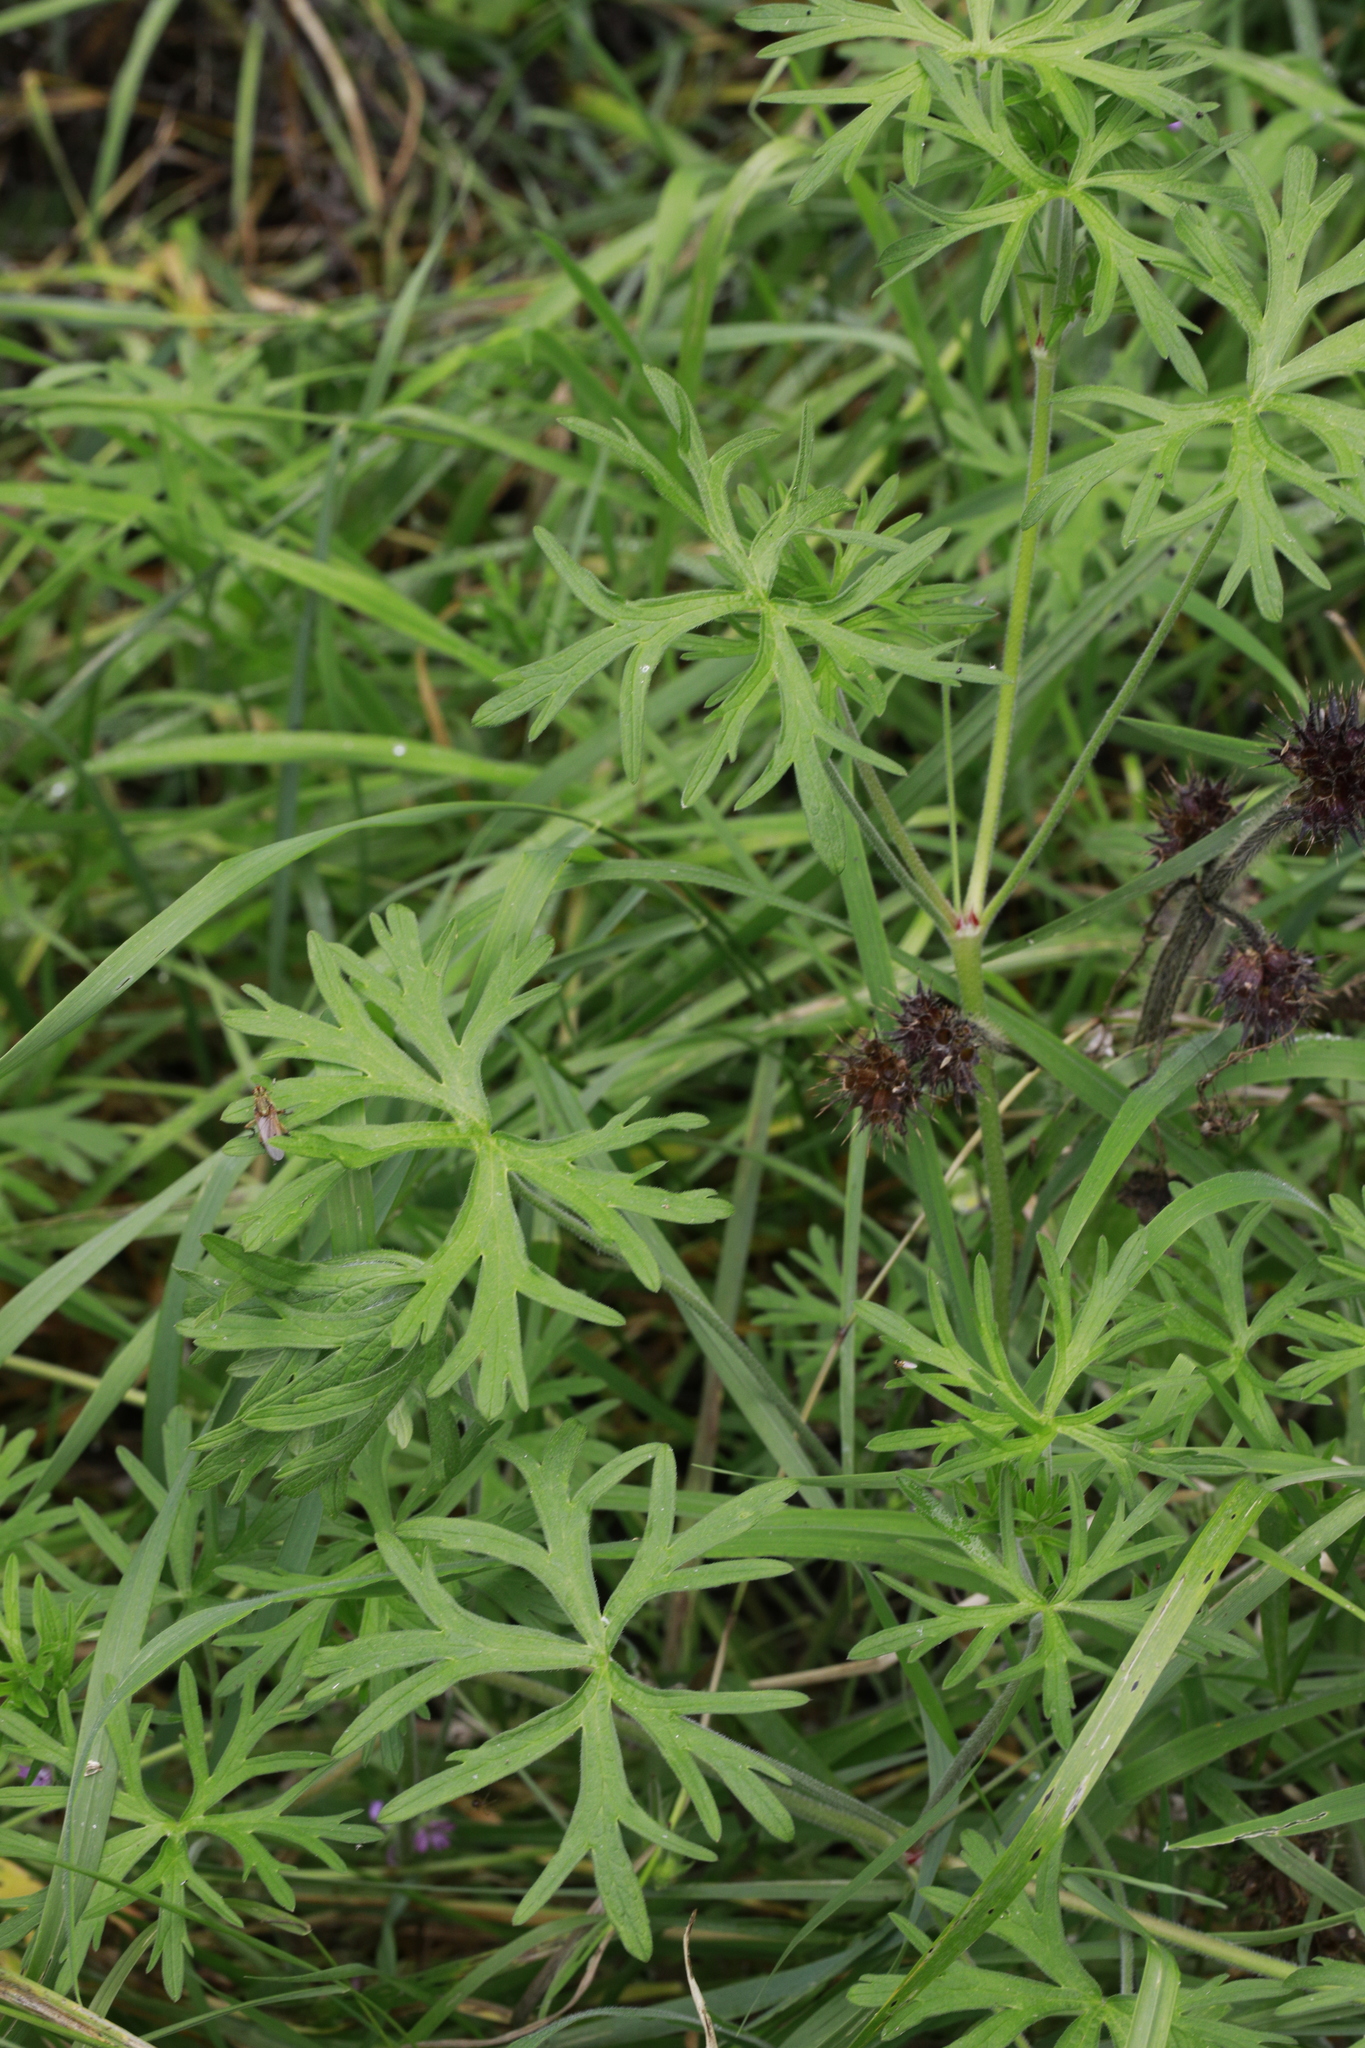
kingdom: Plantae
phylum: Tracheophyta
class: Magnoliopsida
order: Ranunculales
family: Ranunculaceae
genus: Ranunculus
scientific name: Ranunculus acris
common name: Meadow buttercup
